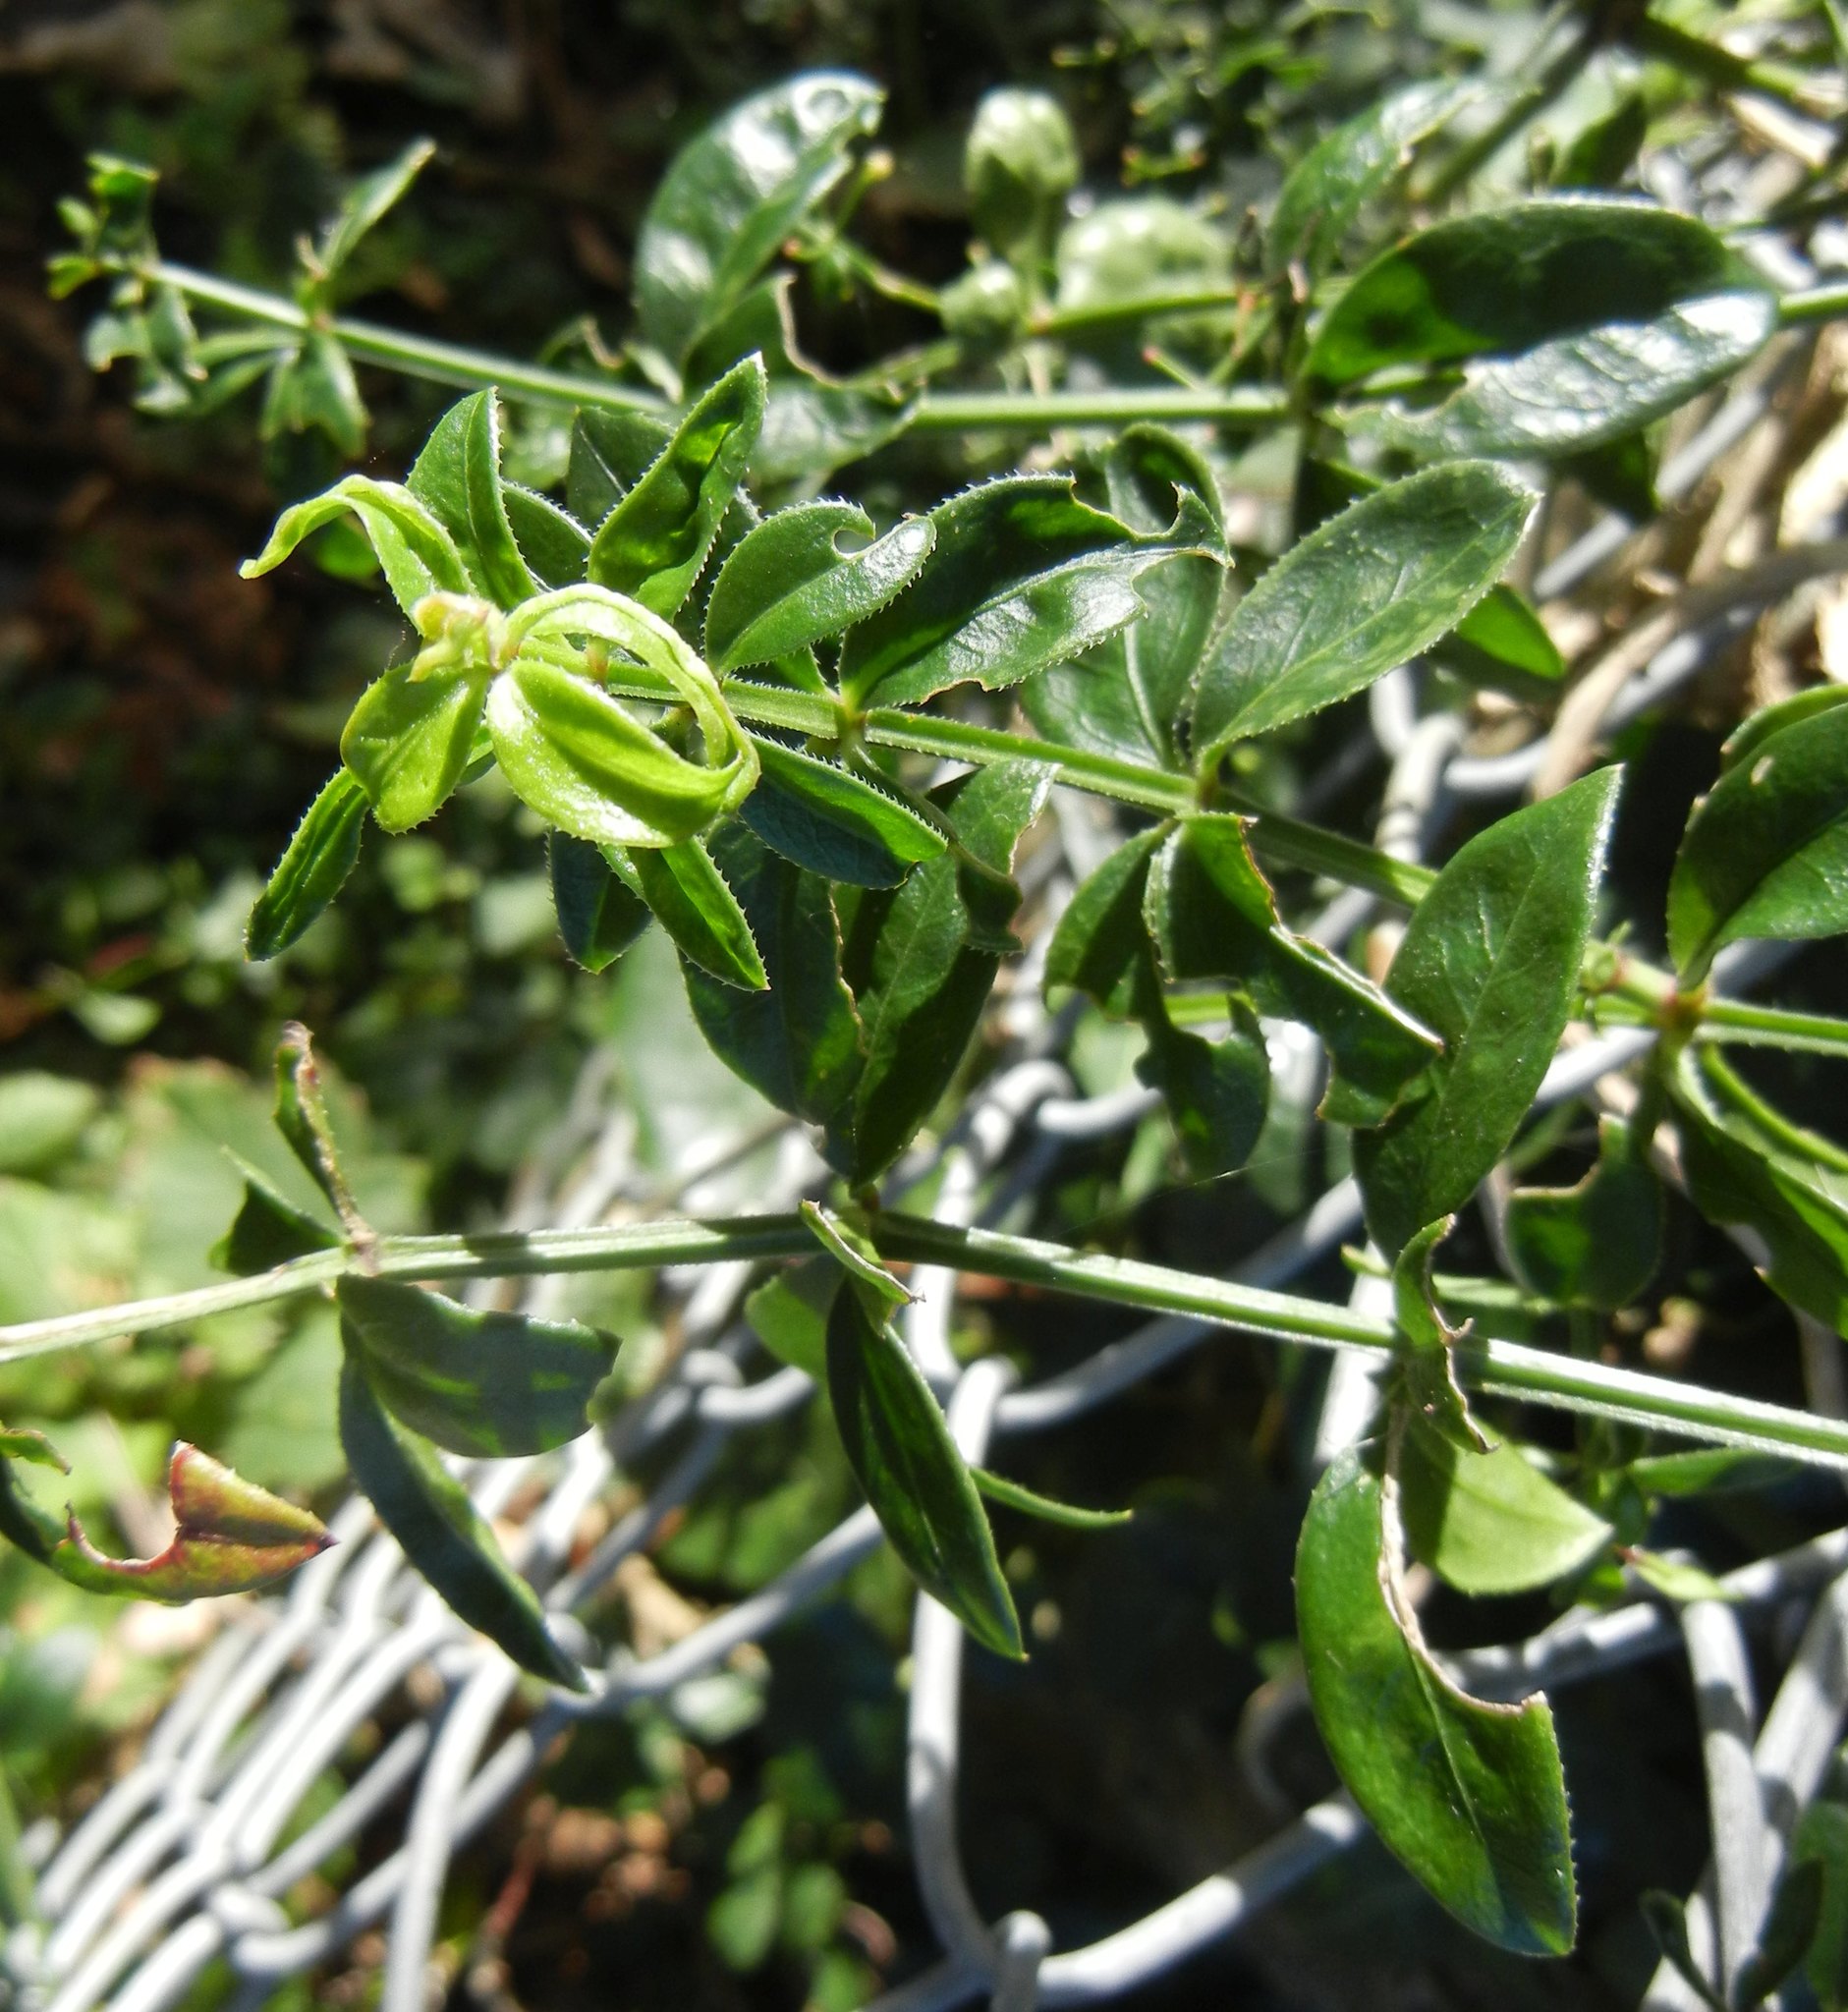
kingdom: Plantae
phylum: Tracheophyta
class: Magnoliopsida
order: Gentianales
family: Rubiaceae
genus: Rubia
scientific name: Rubia peregrina
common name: Wild madder
